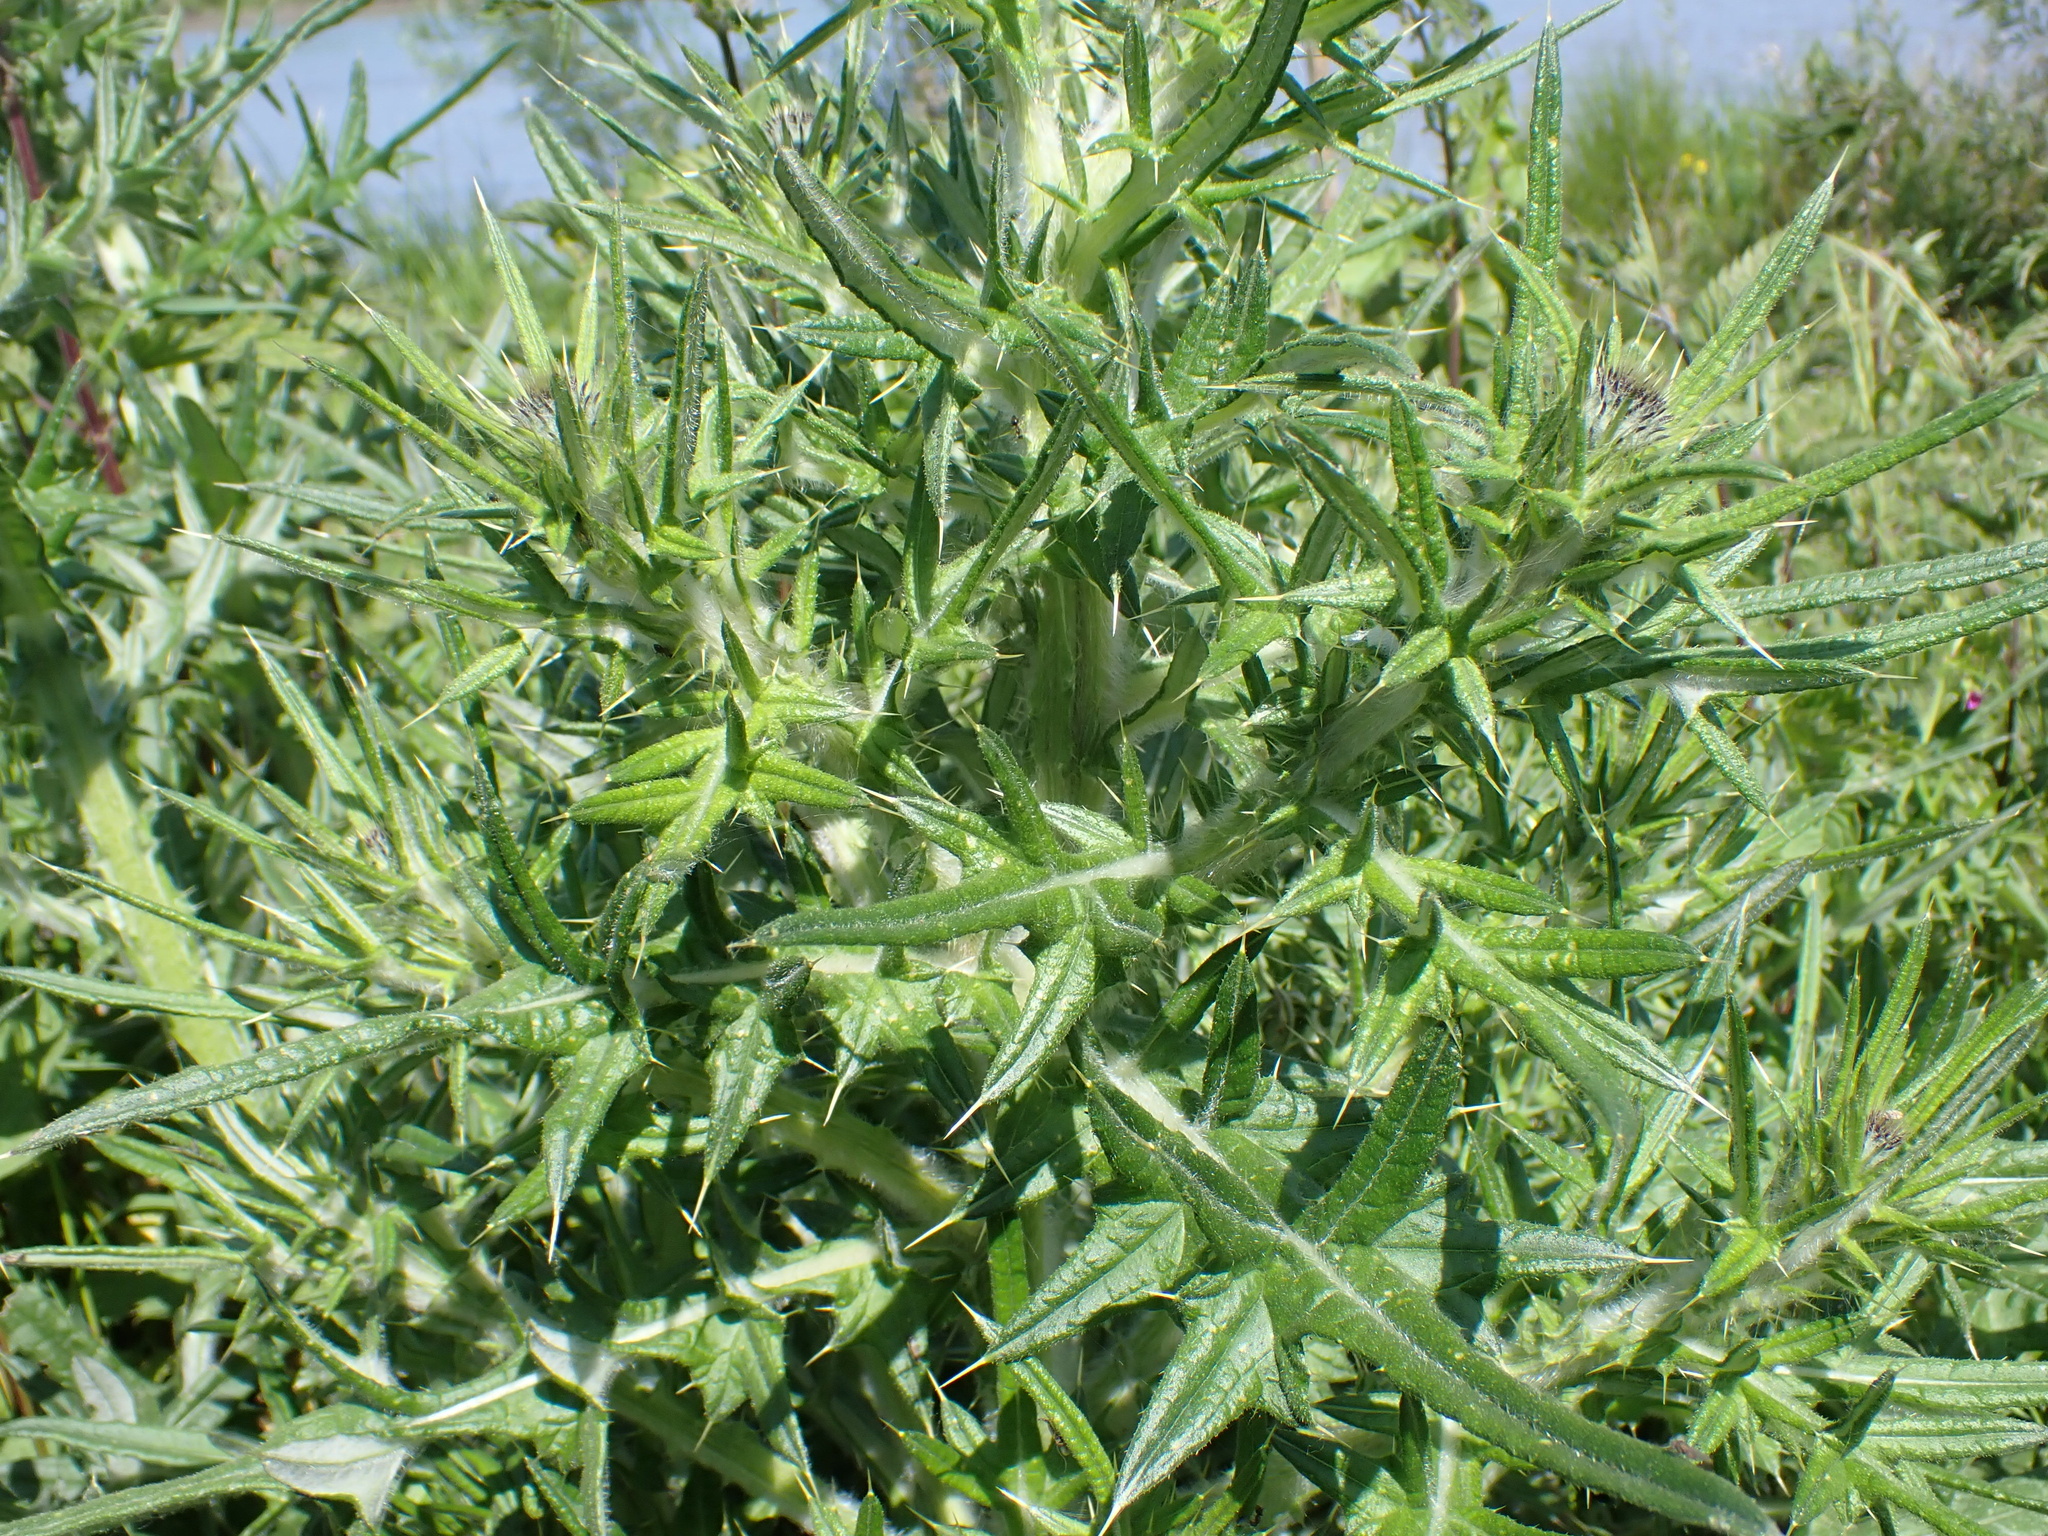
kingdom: Plantae
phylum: Tracheophyta
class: Magnoliopsida
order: Asterales
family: Asteraceae
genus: Cirsium
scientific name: Cirsium vulgare
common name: Bull thistle
